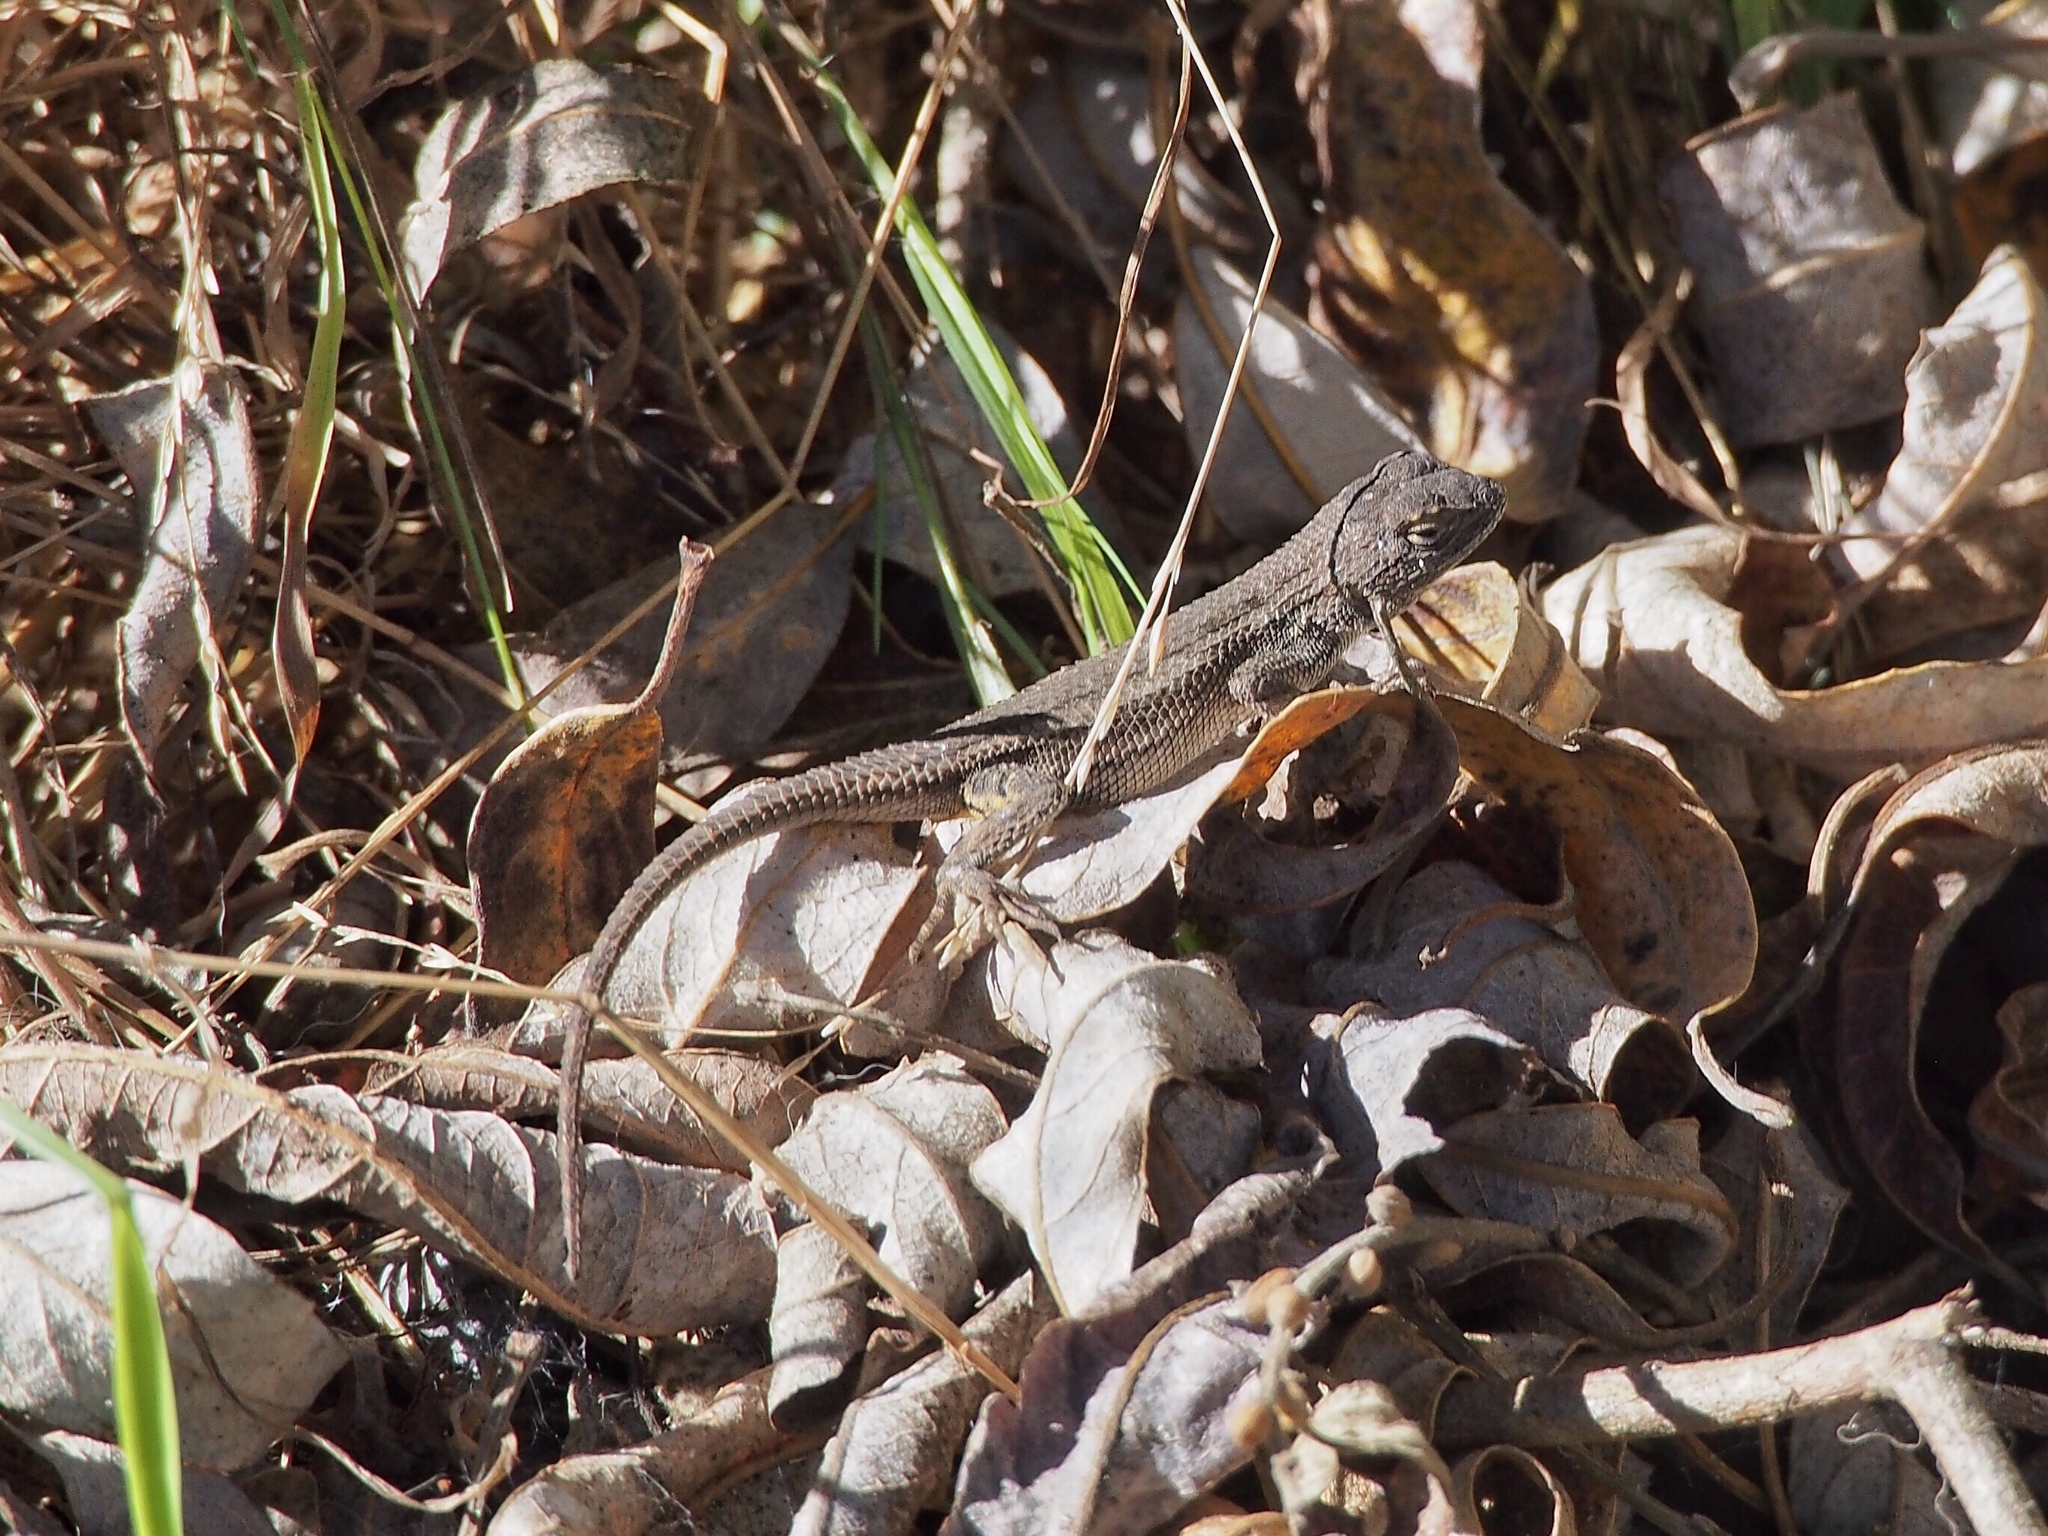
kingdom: Animalia
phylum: Chordata
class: Squamata
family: Phrynosomatidae
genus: Sceloporus
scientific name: Sceloporus occidentalis
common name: Western fence lizard
